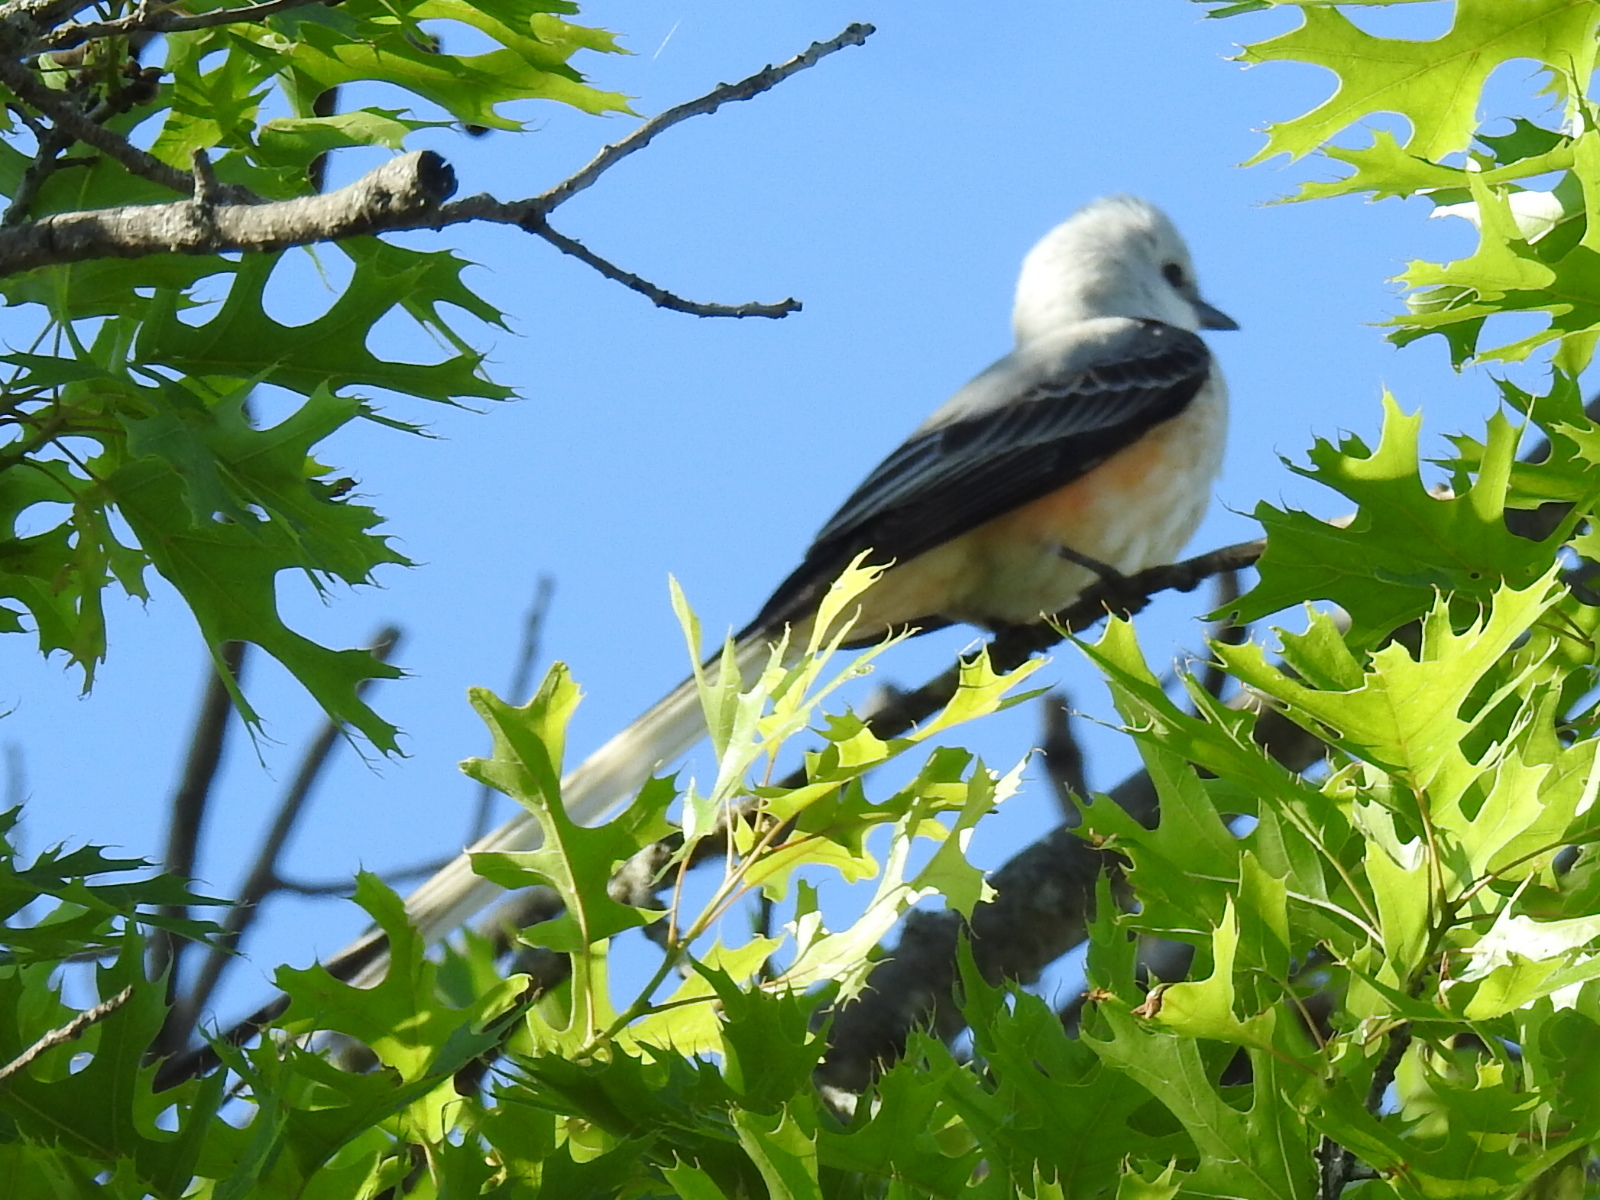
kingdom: Animalia
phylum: Chordata
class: Aves
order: Passeriformes
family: Tyrannidae
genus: Tyrannus
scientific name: Tyrannus forficatus
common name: Scissor-tailed flycatcher
